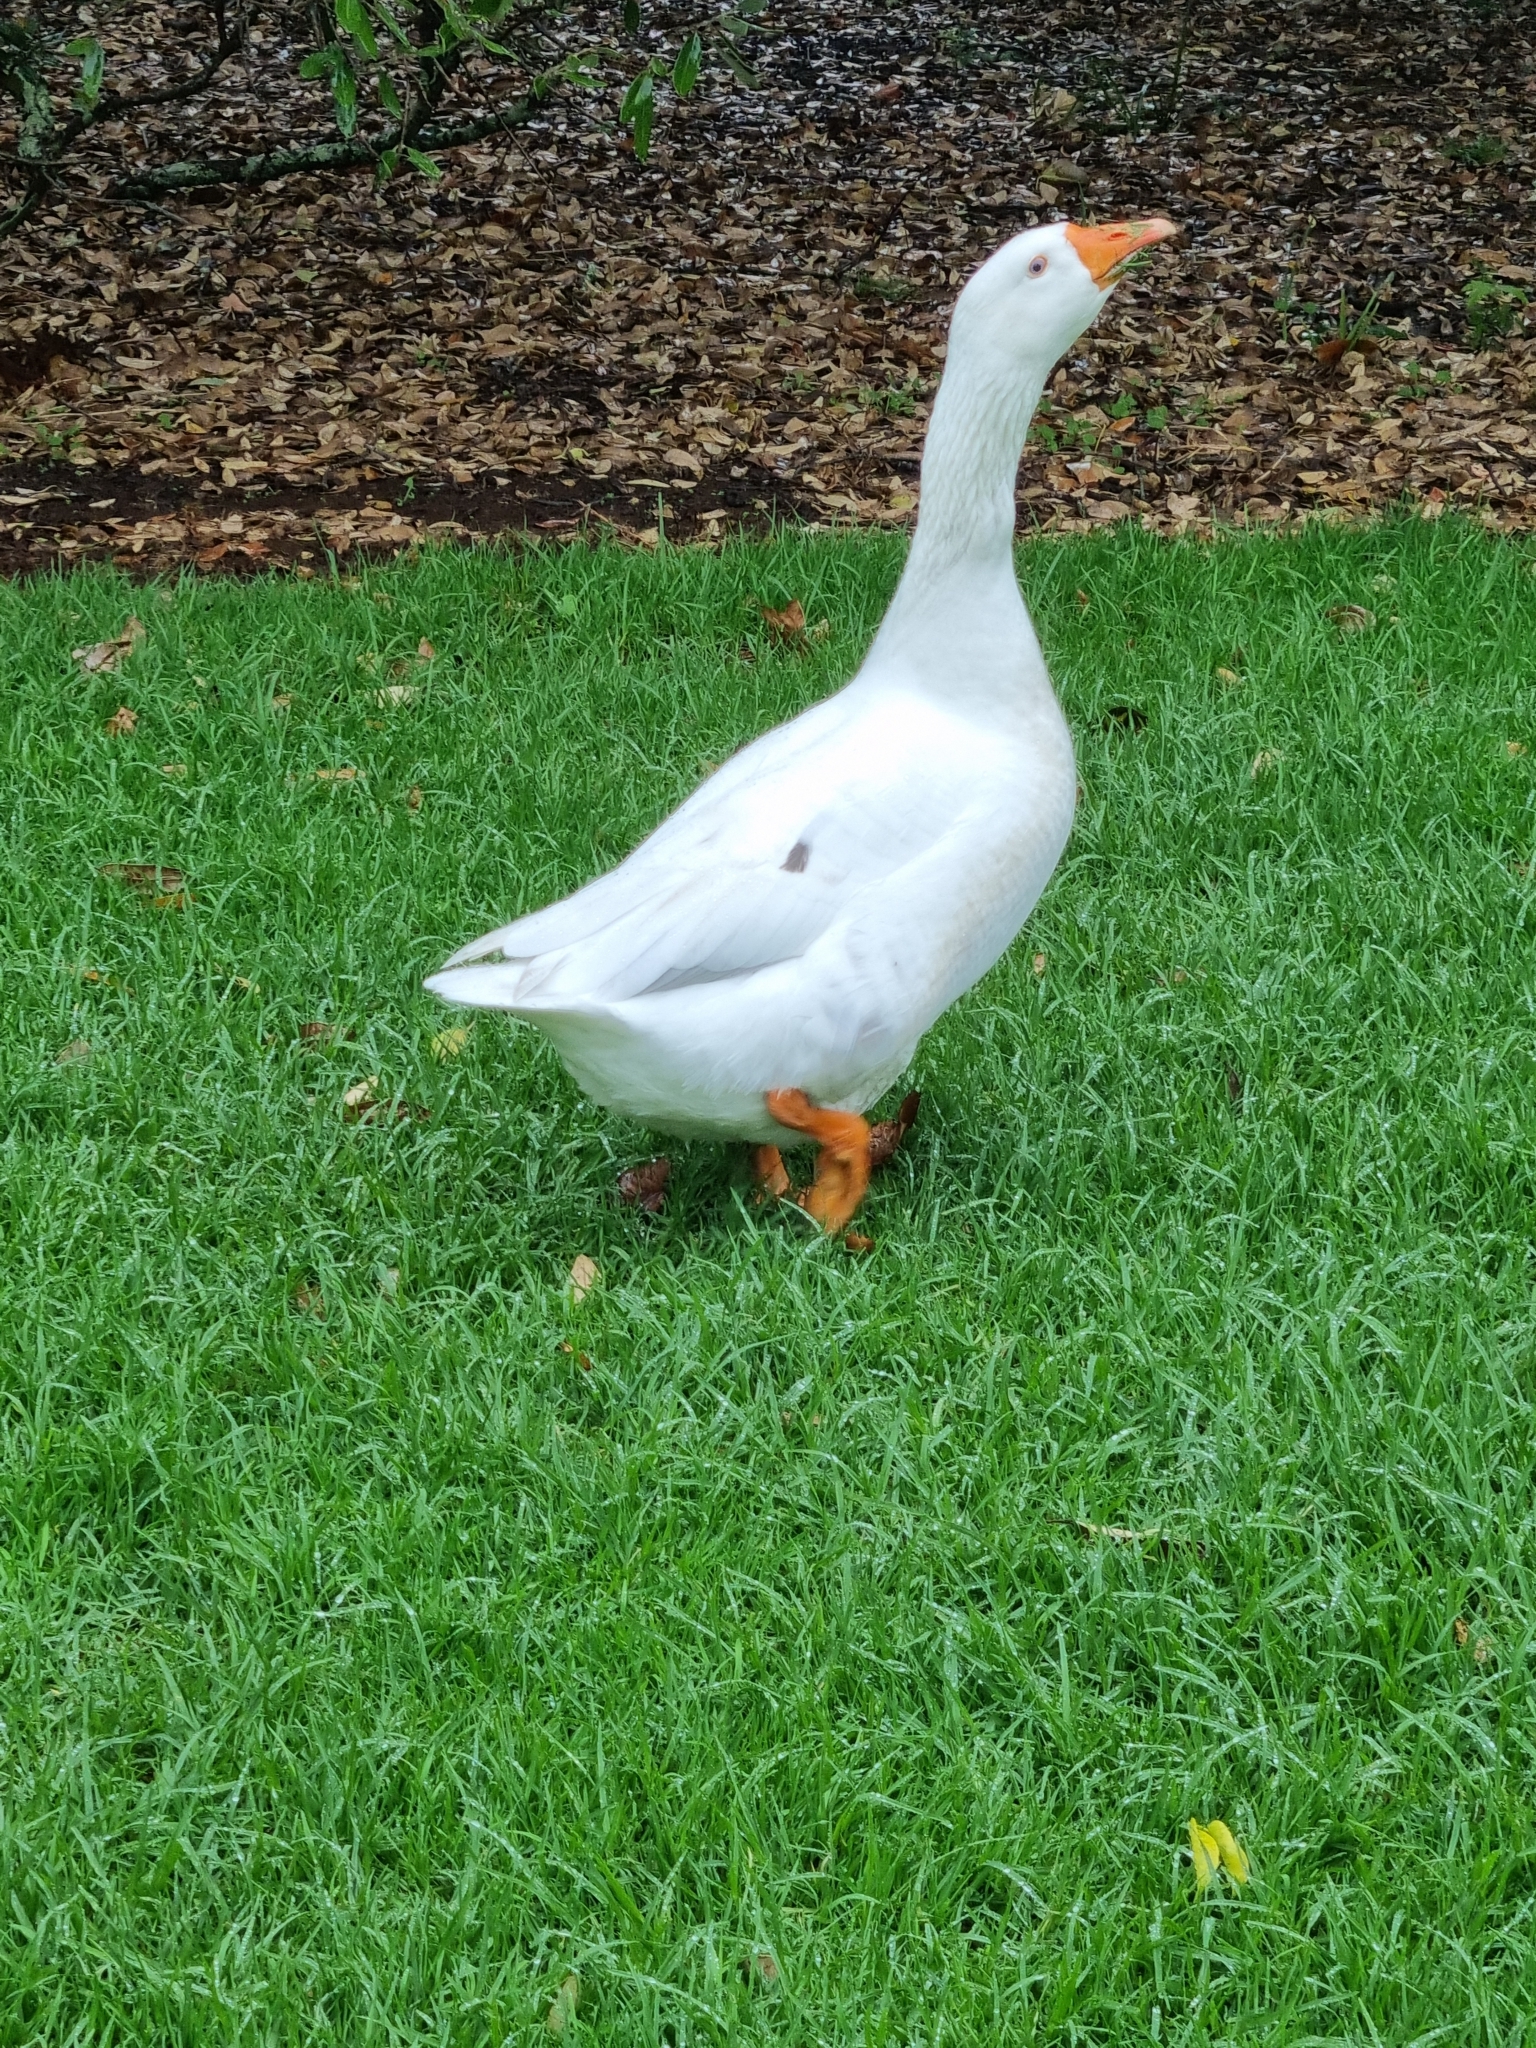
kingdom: Animalia
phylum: Chordata
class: Aves
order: Anseriformes
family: Anatidae
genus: Anser
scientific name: Anser anser
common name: Greylag goose
